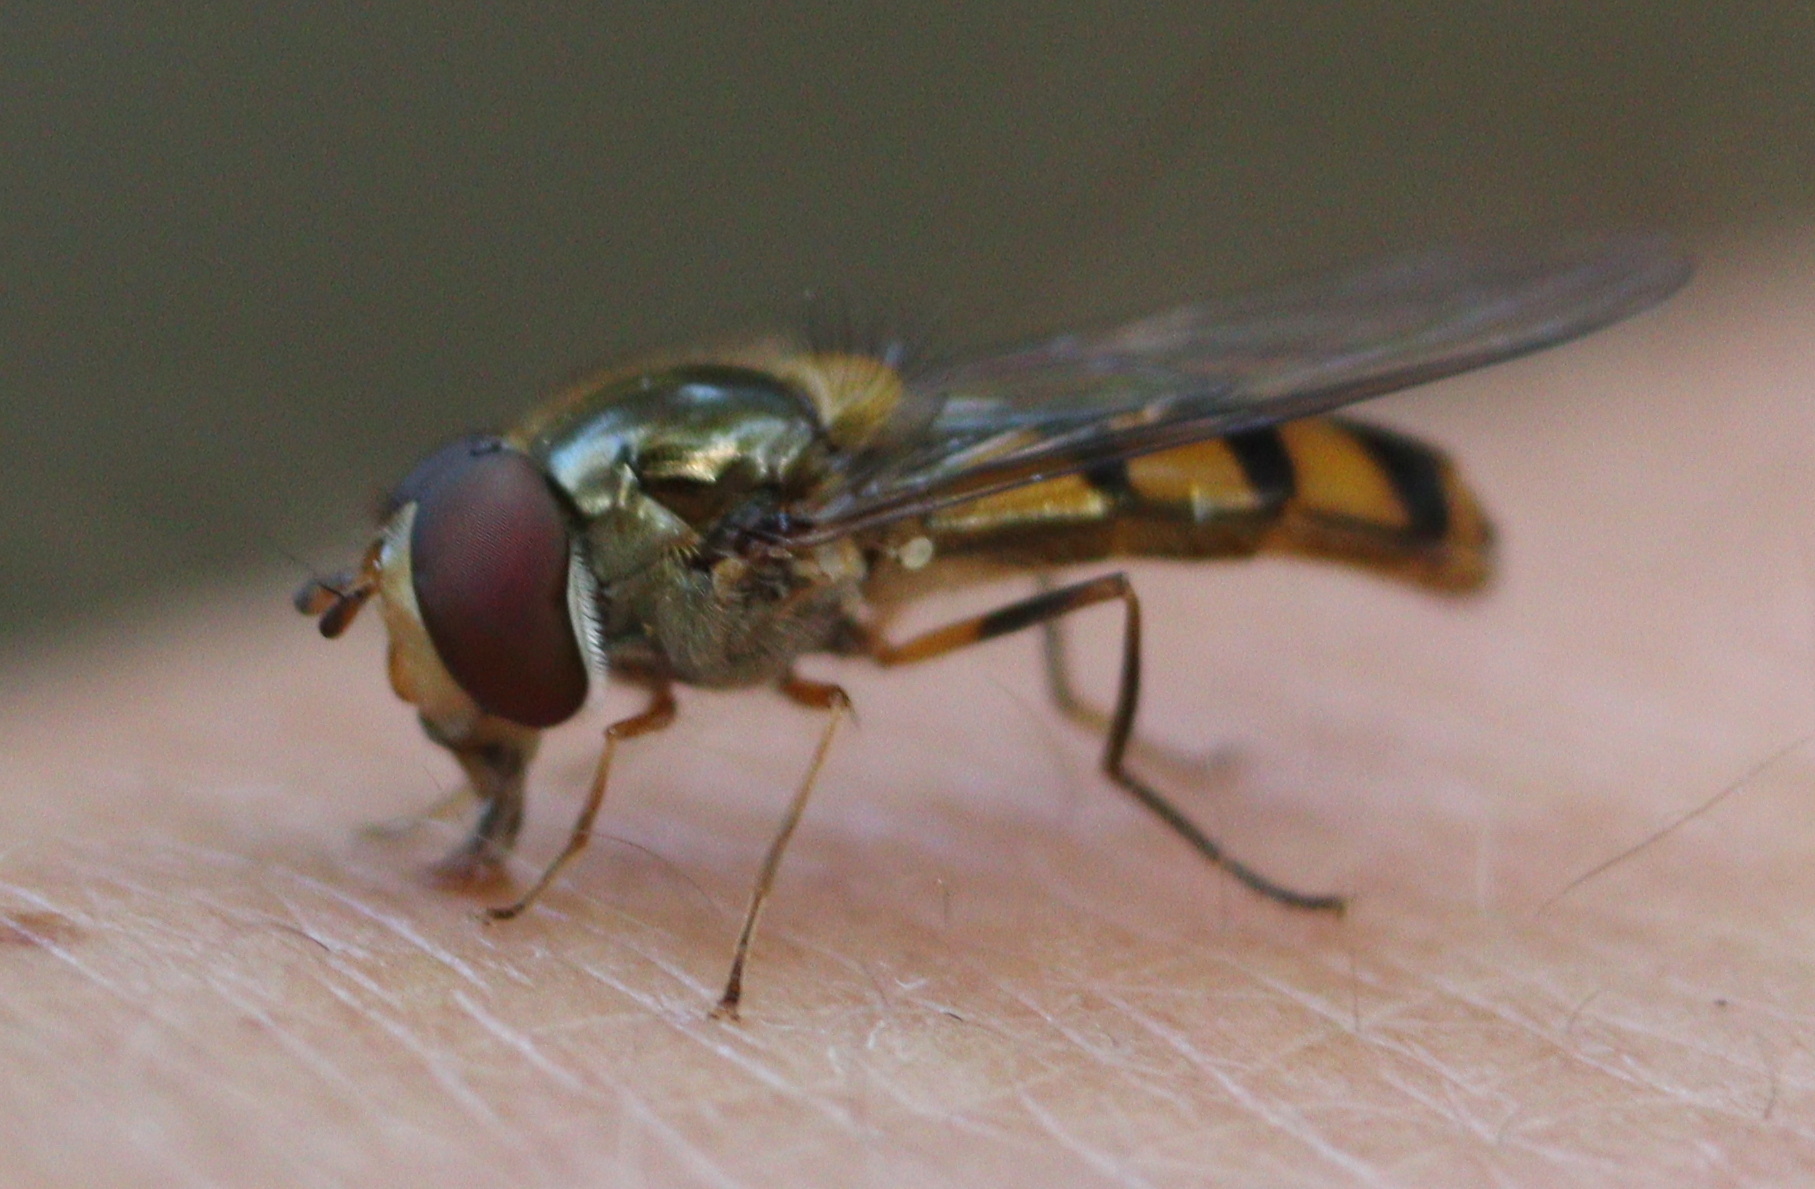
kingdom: Animalia
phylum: Arthropoda
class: Insecta
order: Diptera
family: Syrphidae
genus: Meliscaeva
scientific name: Meliscaeva auricollis
